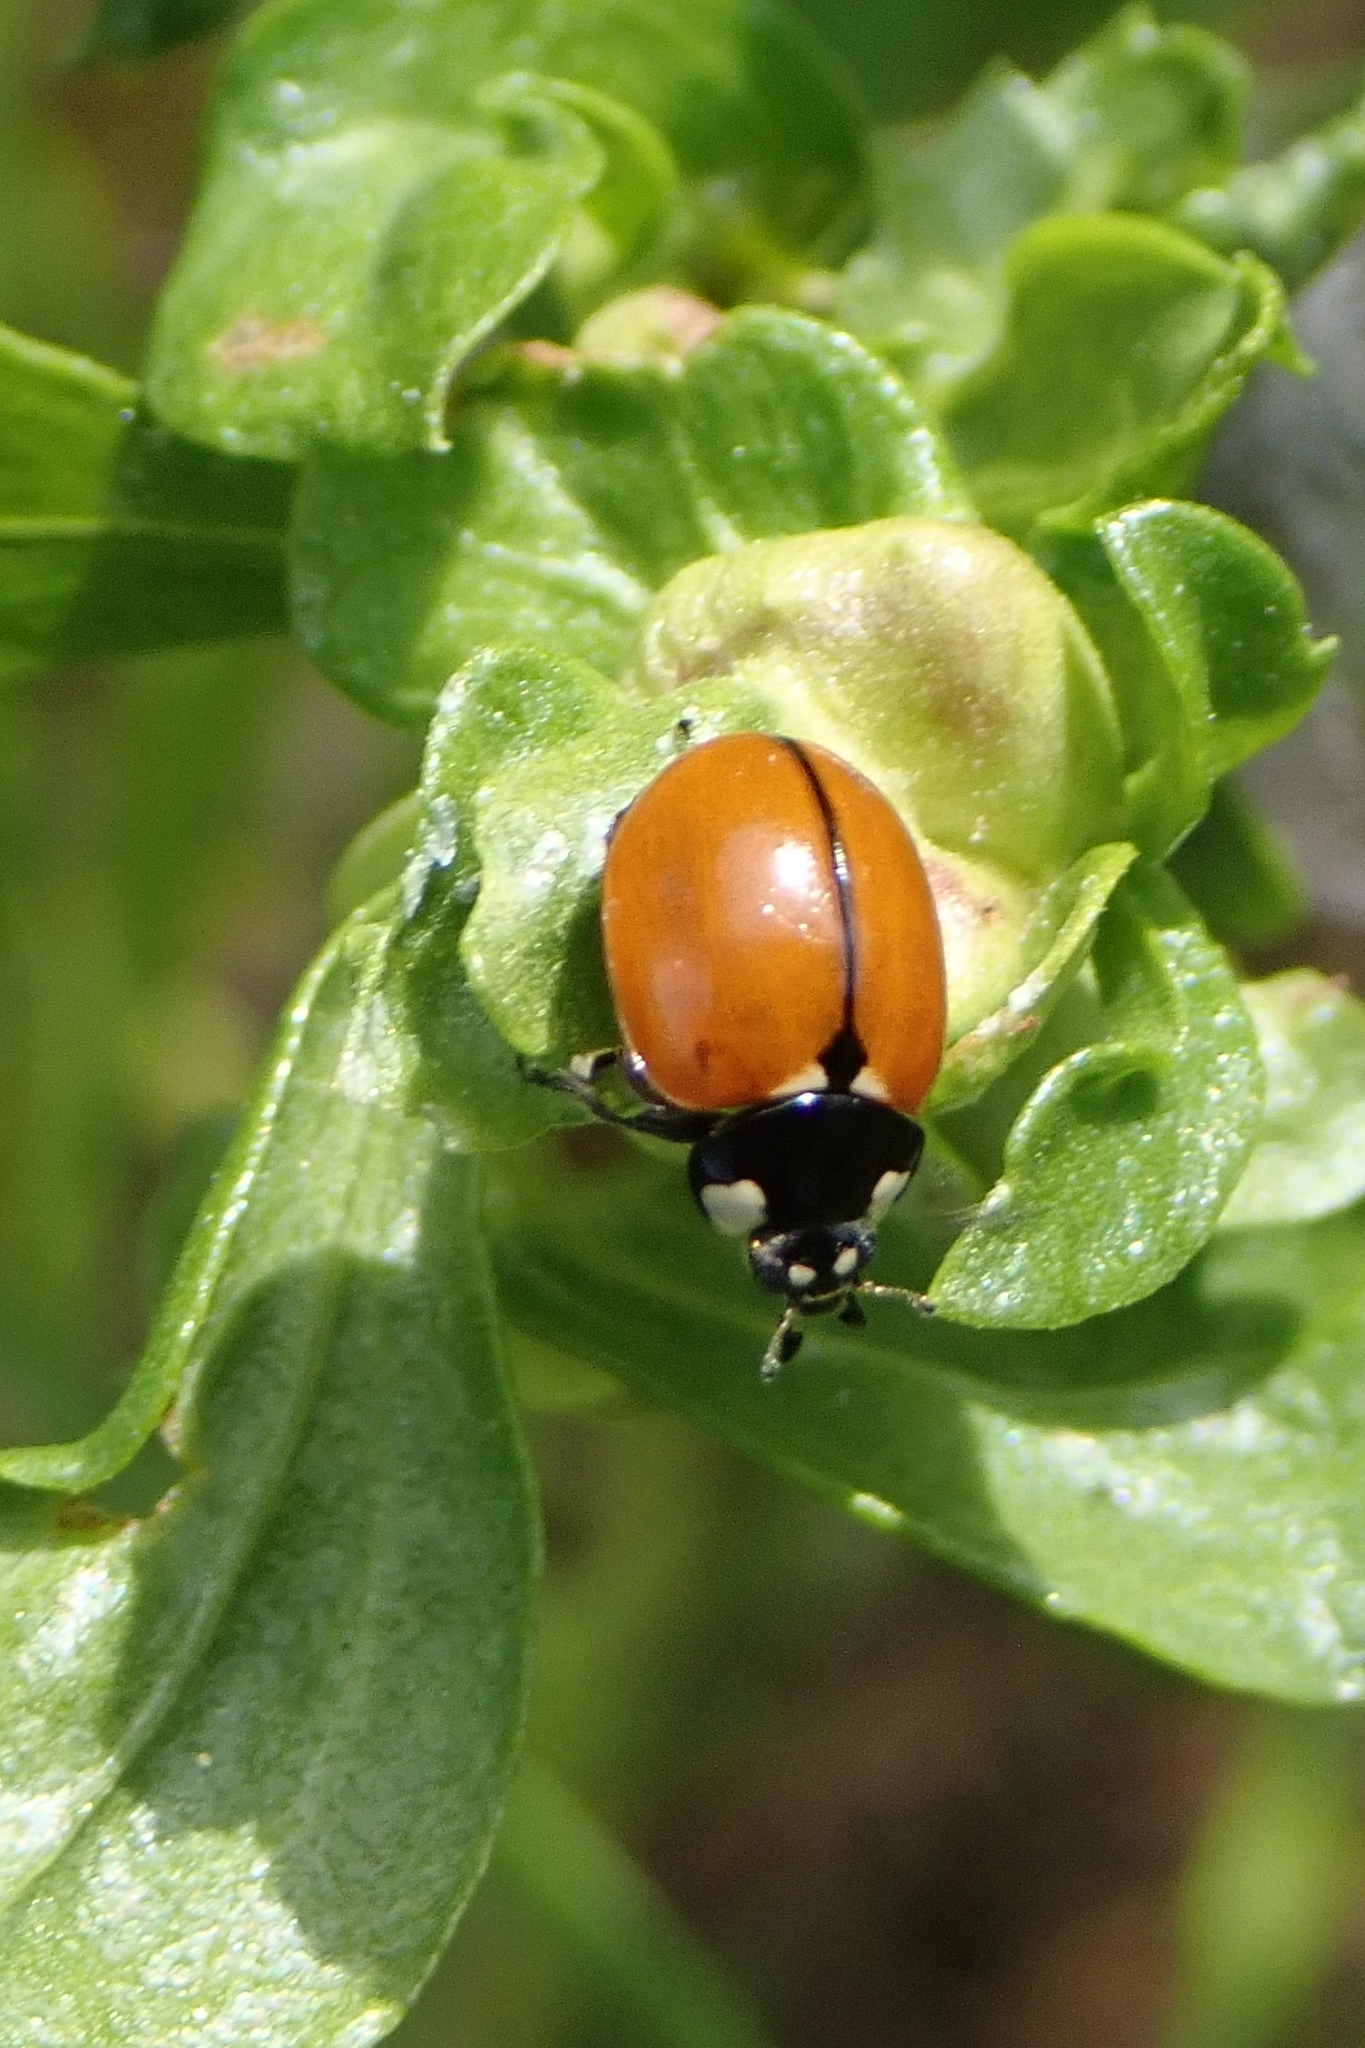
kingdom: Animalia
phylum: Arthropoda
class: Insecta
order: Coleoptera
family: Coccinellidae
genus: Coccinella
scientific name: Coccinella californica
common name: Lady beetle
